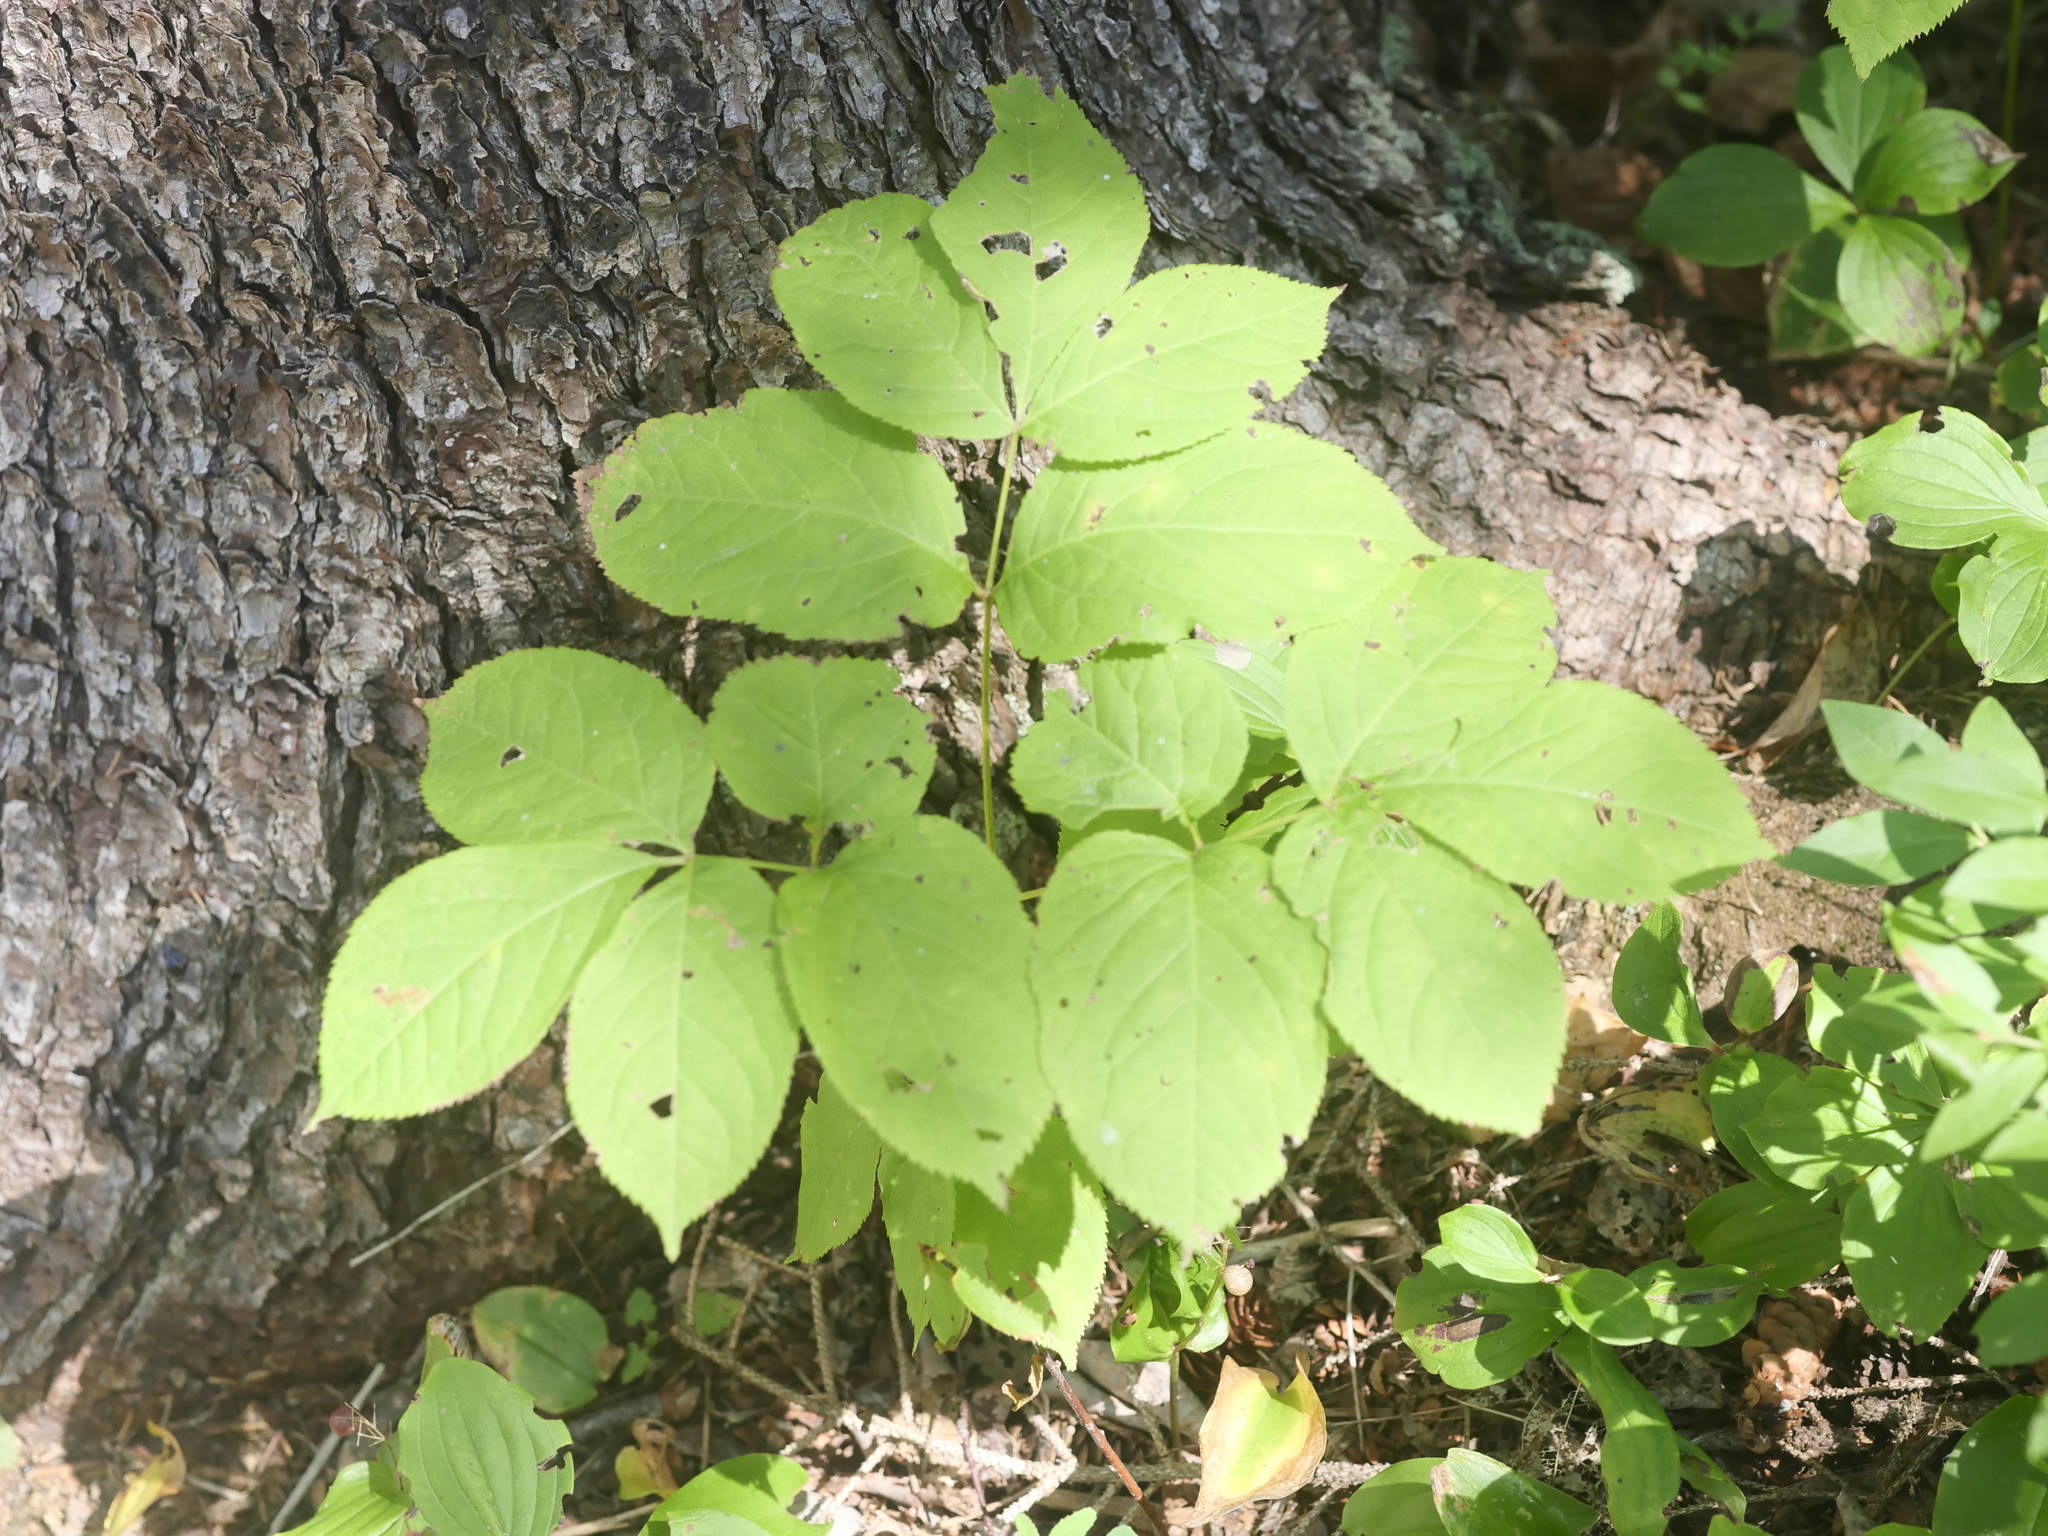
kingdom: Plantae
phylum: Tracheophyta
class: Magnoliopsida
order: Apiales
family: Araliaceae
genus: Aralia
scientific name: Aralia nudicaulis
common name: Wild sarsaparilla
